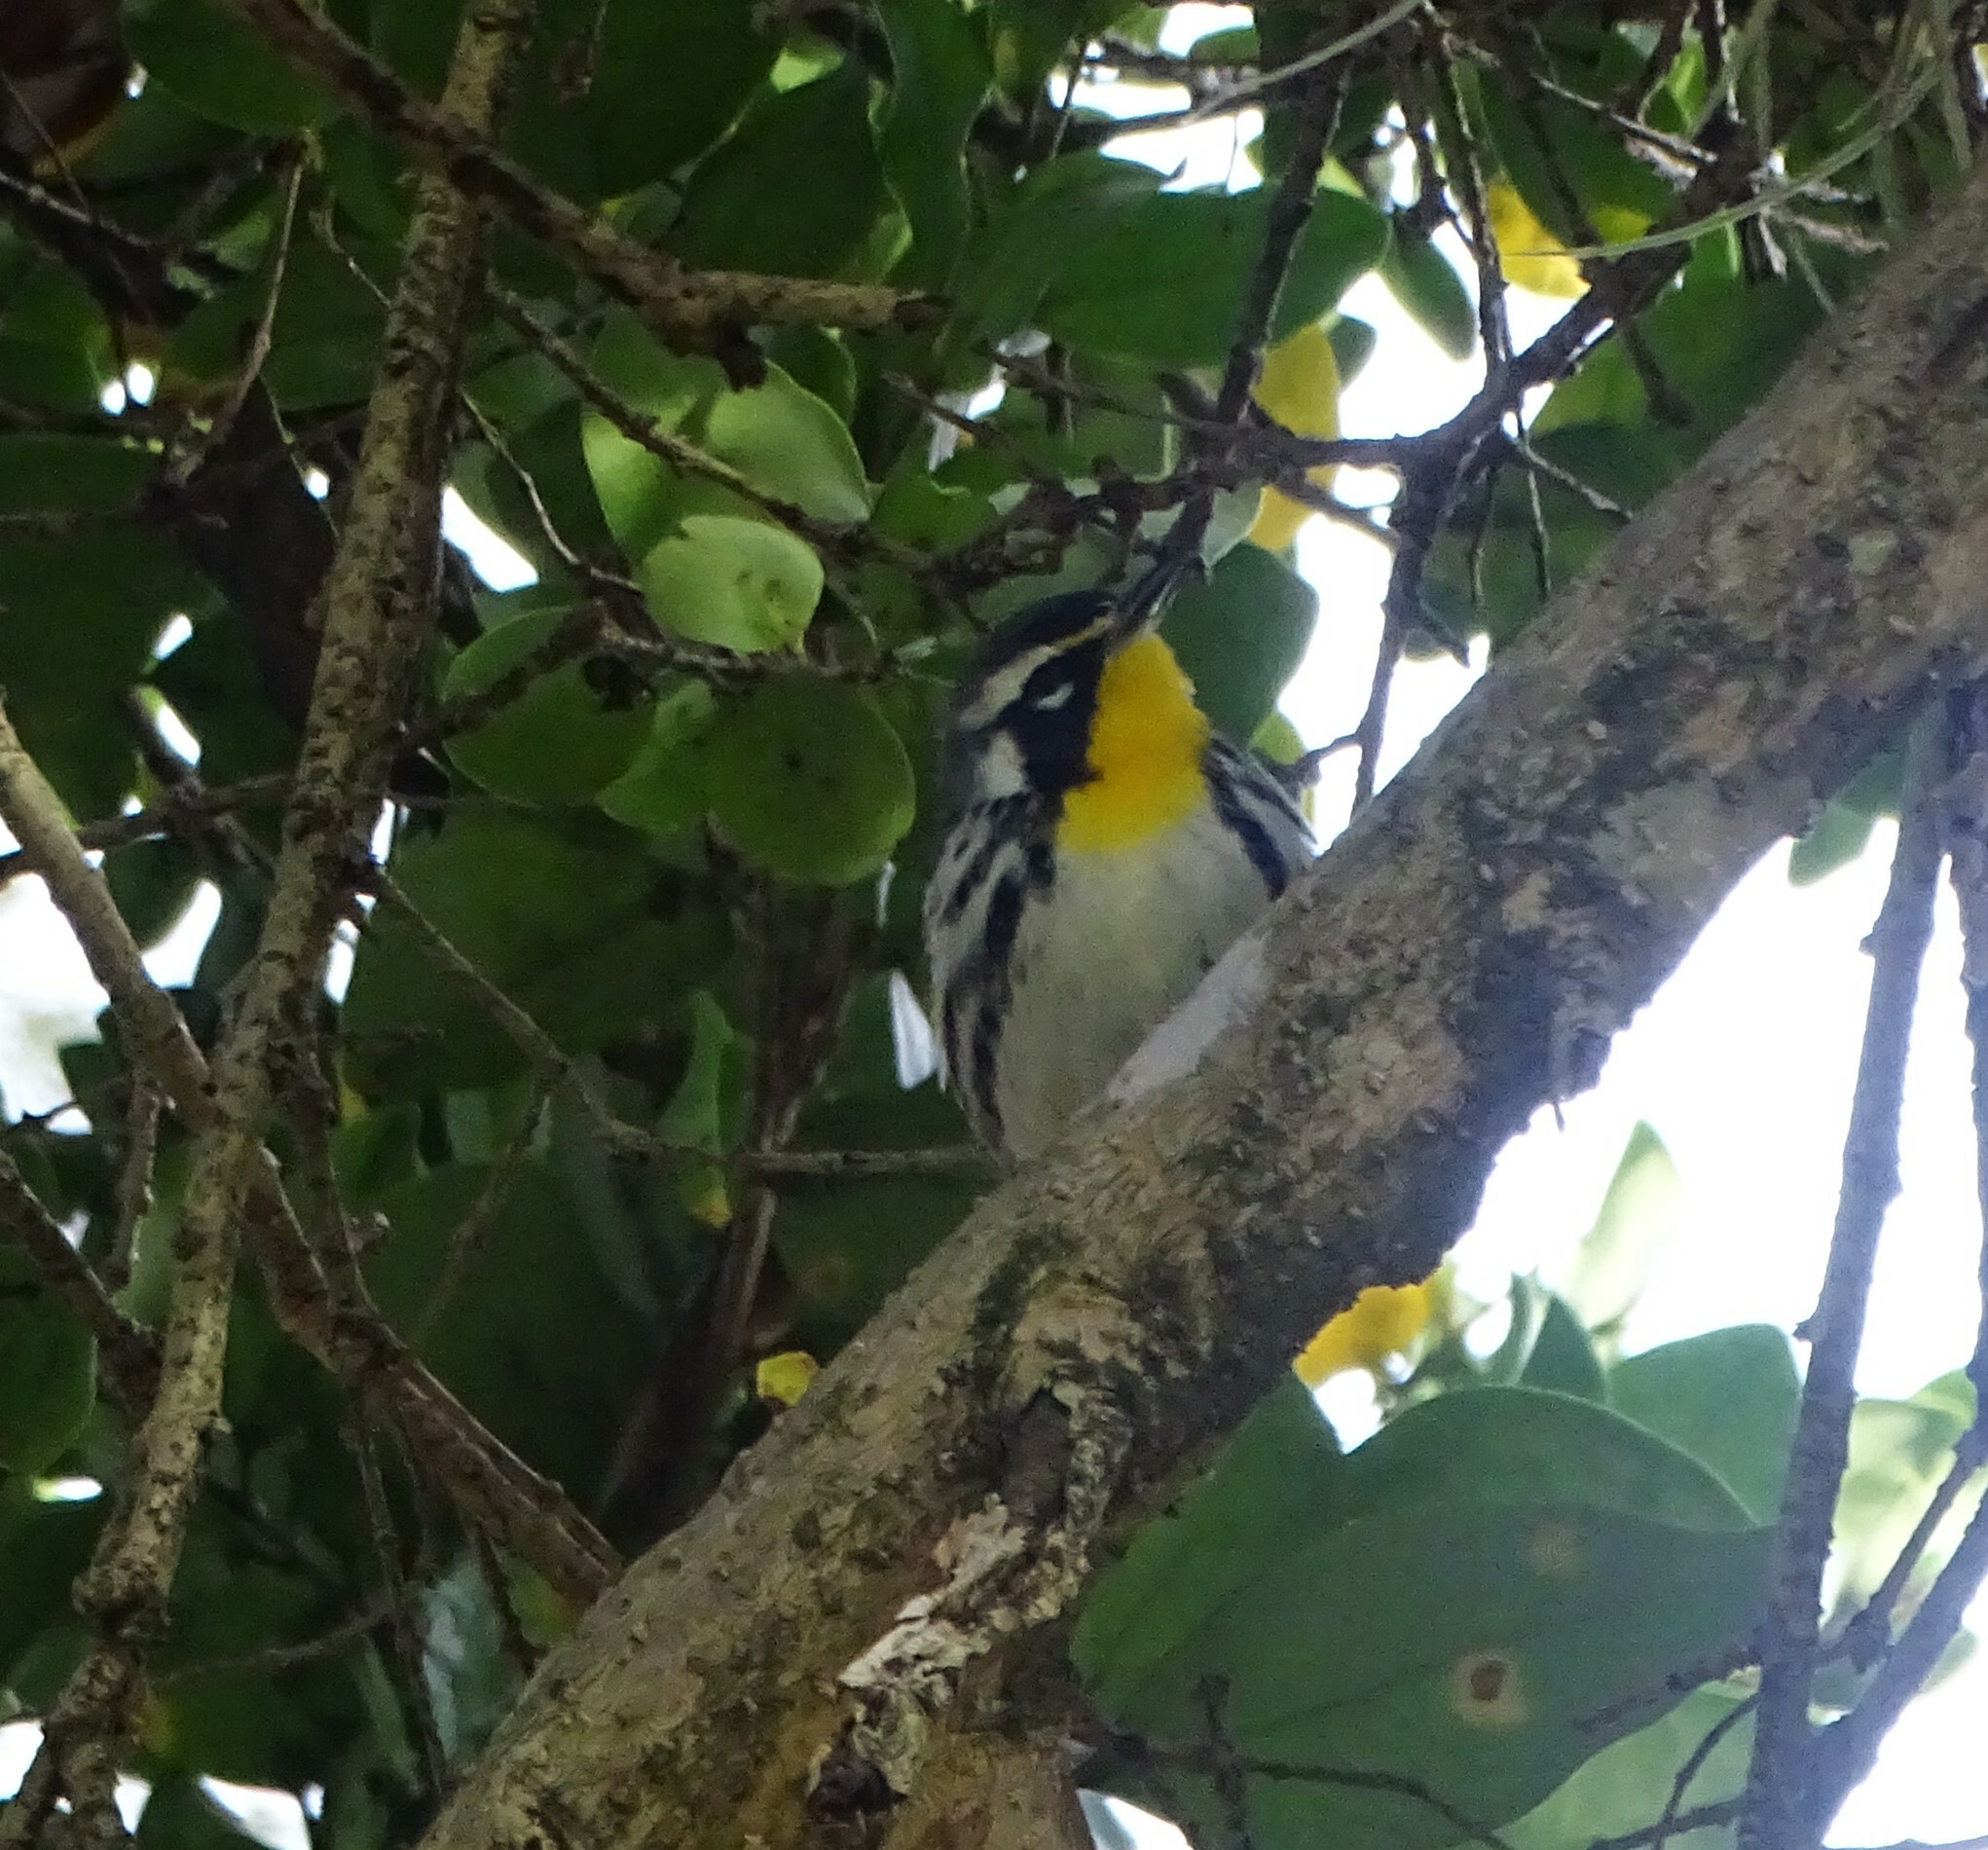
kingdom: Animalia
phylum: Chordata
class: Aves
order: Passeriformes
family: Parulidae
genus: Setophaga
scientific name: Setophaga dominica
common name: Yellow-throated warbler
